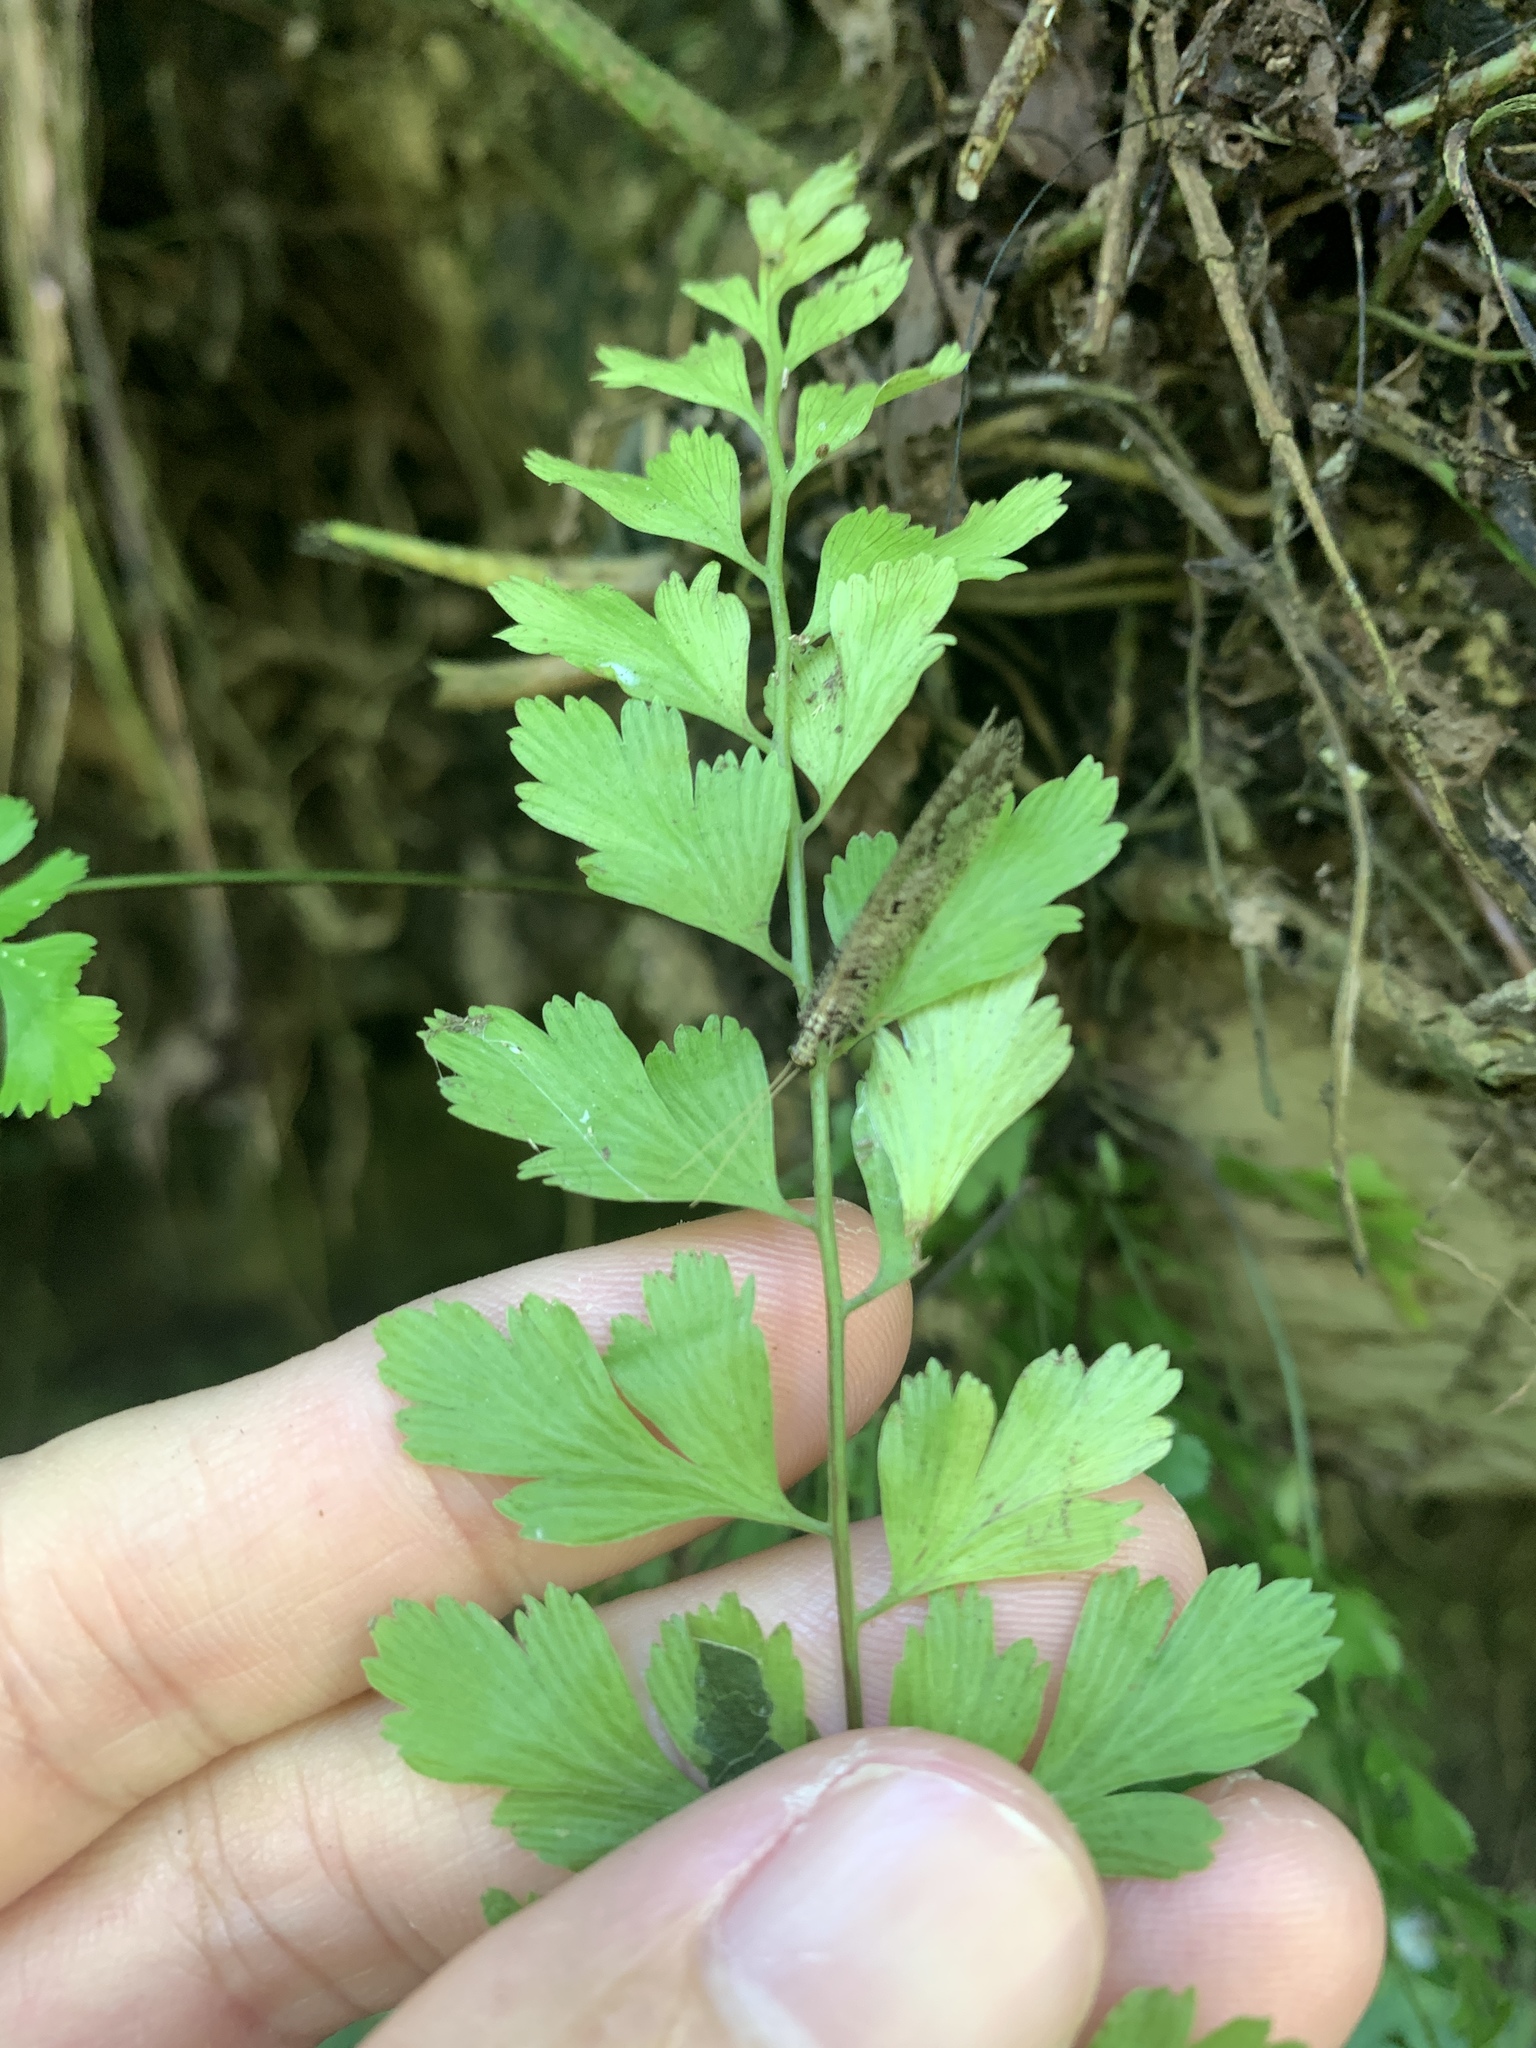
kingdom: Plantae
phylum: Tracheophyta
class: Polypodiopsida
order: Polypodiales
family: Aspleniaceae
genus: Asplenium
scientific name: Asplenium pseudolaserpitiifolium
